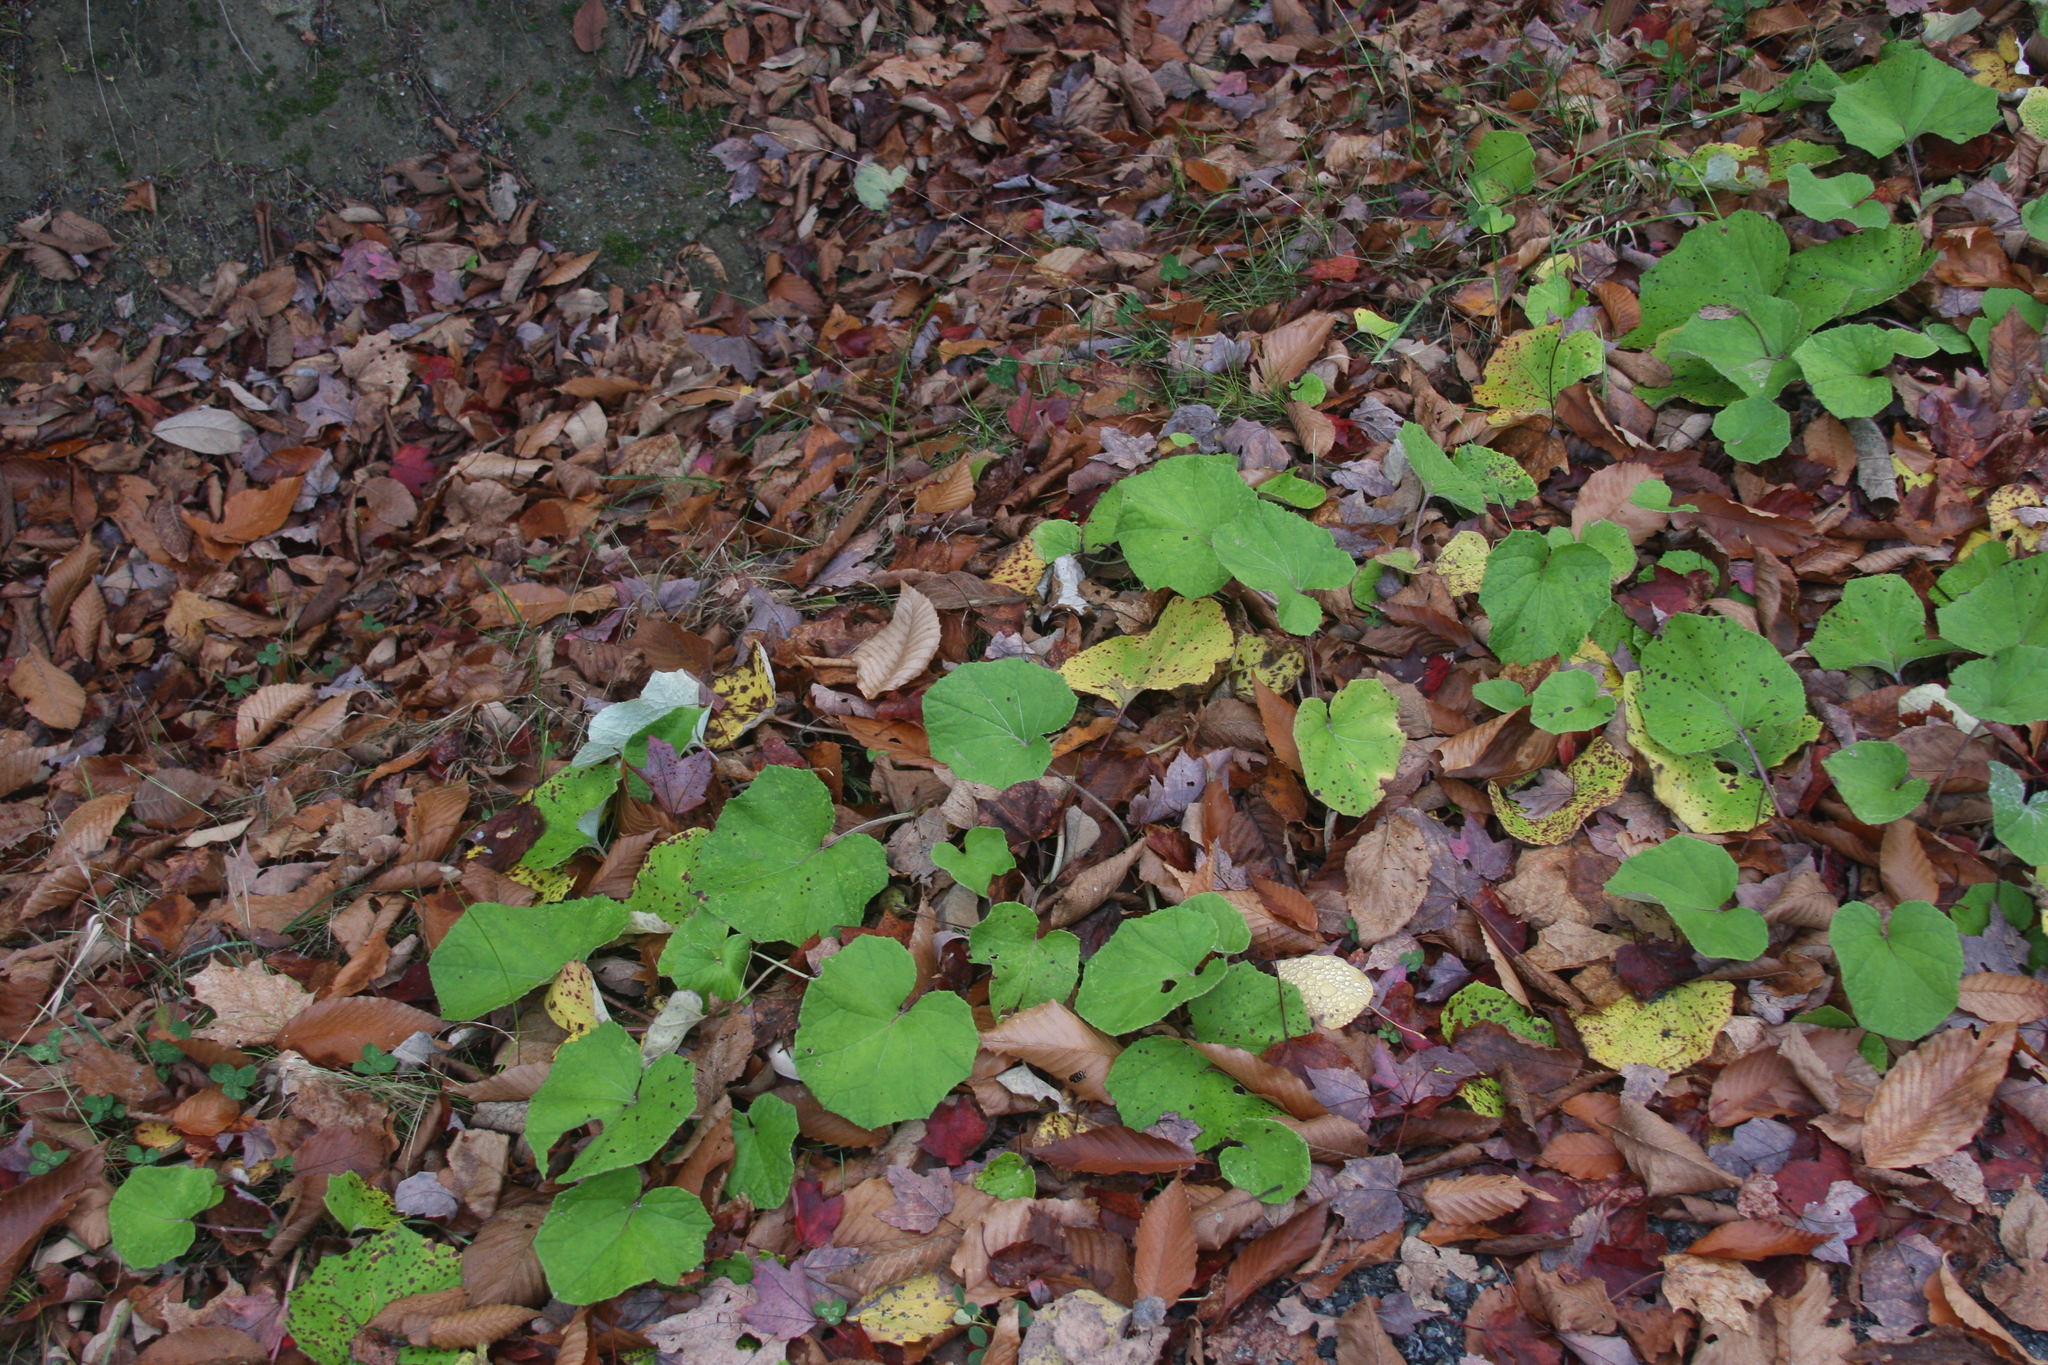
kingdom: Plantae
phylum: Tracheophyta
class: Magnoliopsida
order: Asterales
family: Asteraceae
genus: Tussilago
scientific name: Tussilago farfara
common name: Coltsfoot
